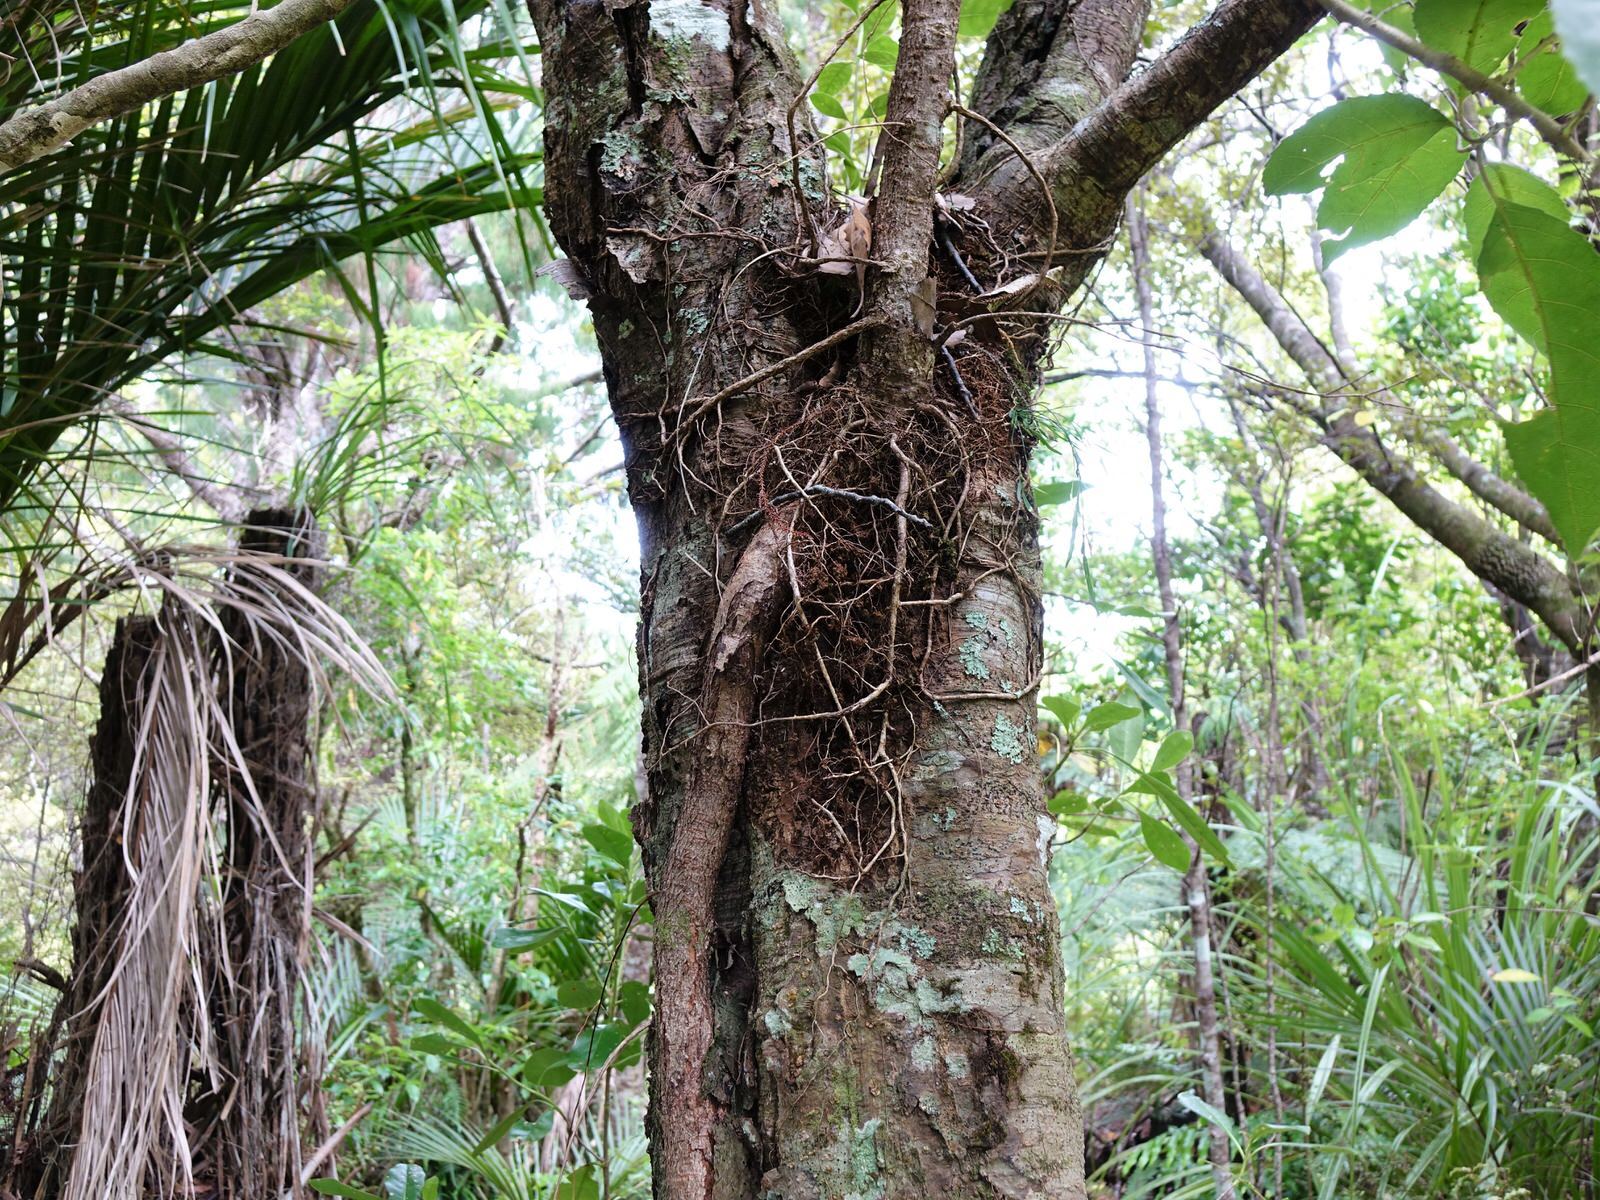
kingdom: Plantae
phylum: Tracheophyta
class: Magnoliopsida
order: Myrtales
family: Myrtaceae
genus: Metrosideros
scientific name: Metrosideros robusta
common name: Northern rata
